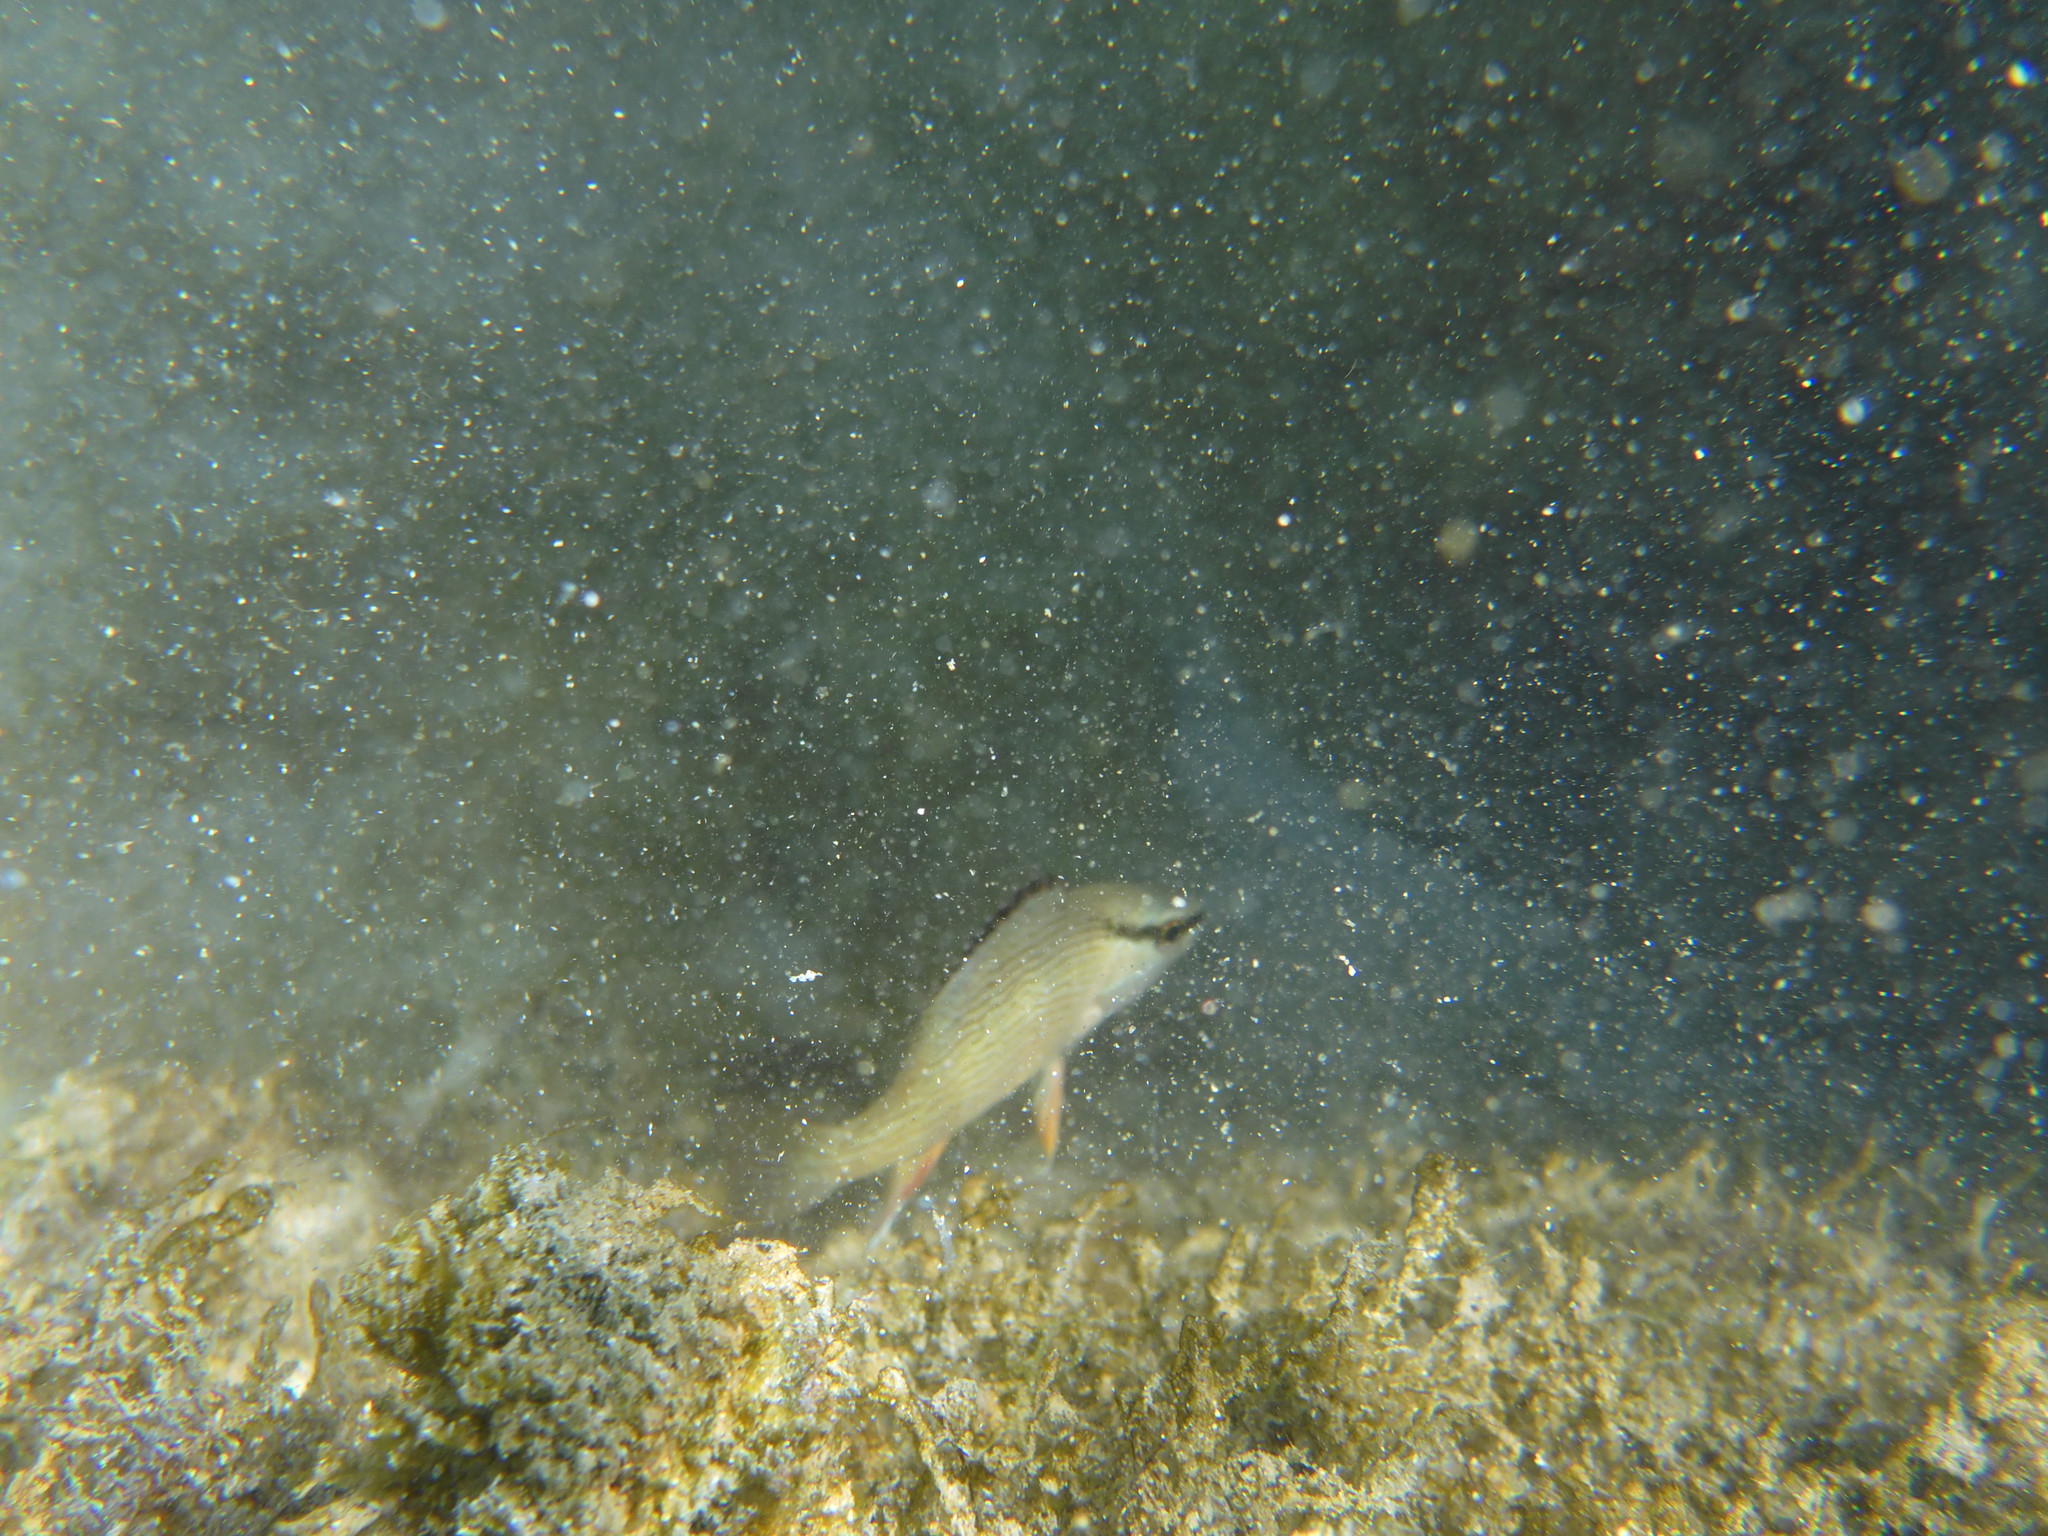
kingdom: Animalia
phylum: Chordata
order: Perciformes
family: Lutjanidae
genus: Lutjanus
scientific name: Lutjanus griseus
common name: Gray snapper
